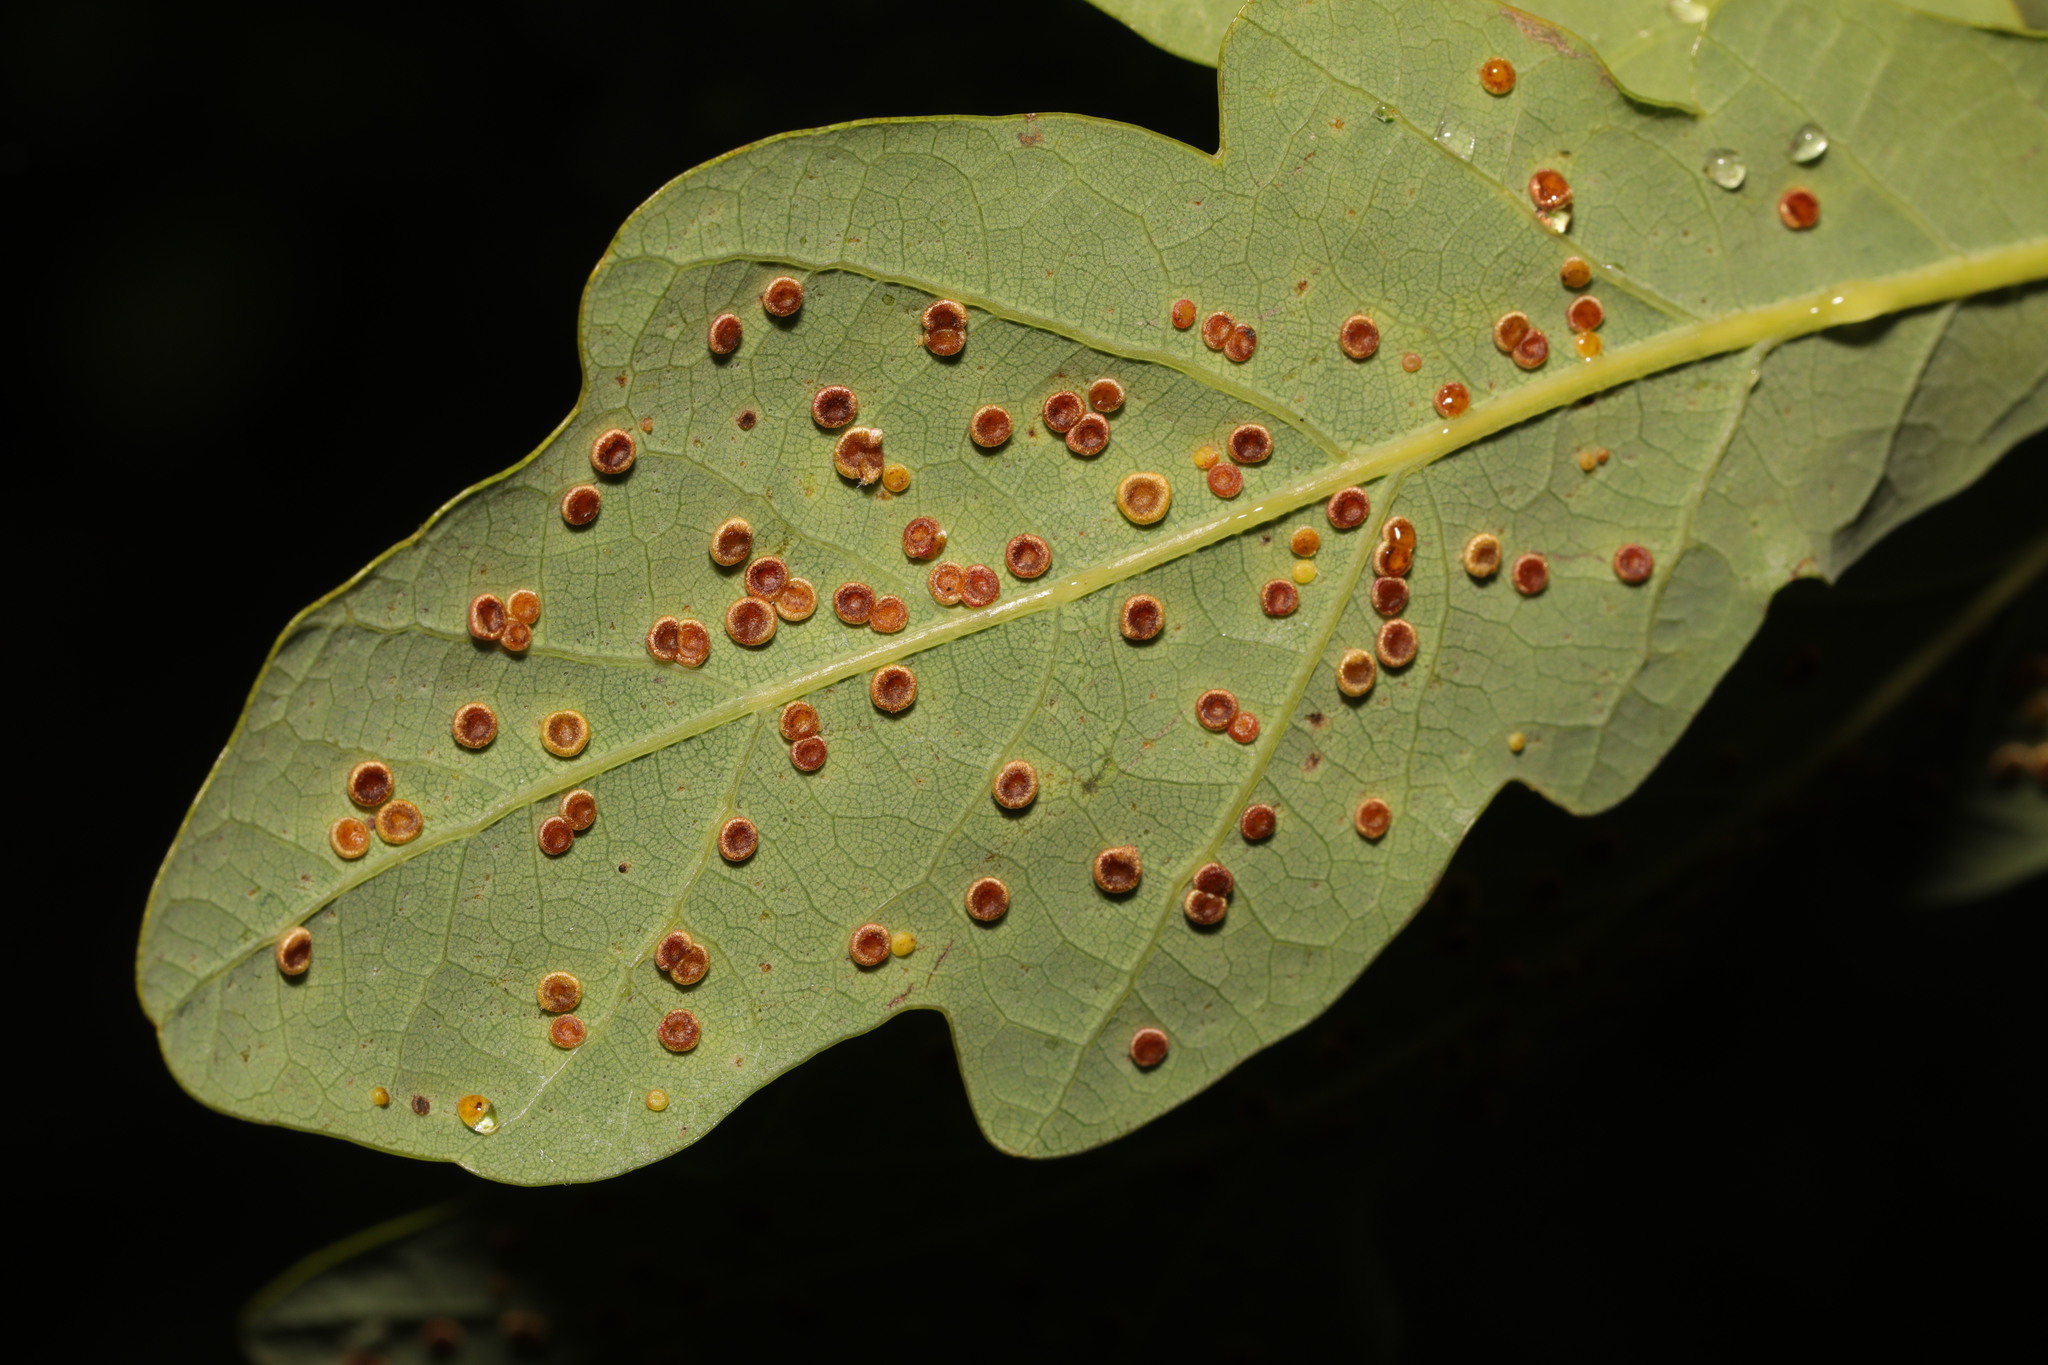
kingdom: Animalia
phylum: Arthropoda
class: Insecta
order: Hymenoptera
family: Cynipidae
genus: Neuroterus
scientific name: Neuroterus numismalis
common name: Silk-button spangle gall
